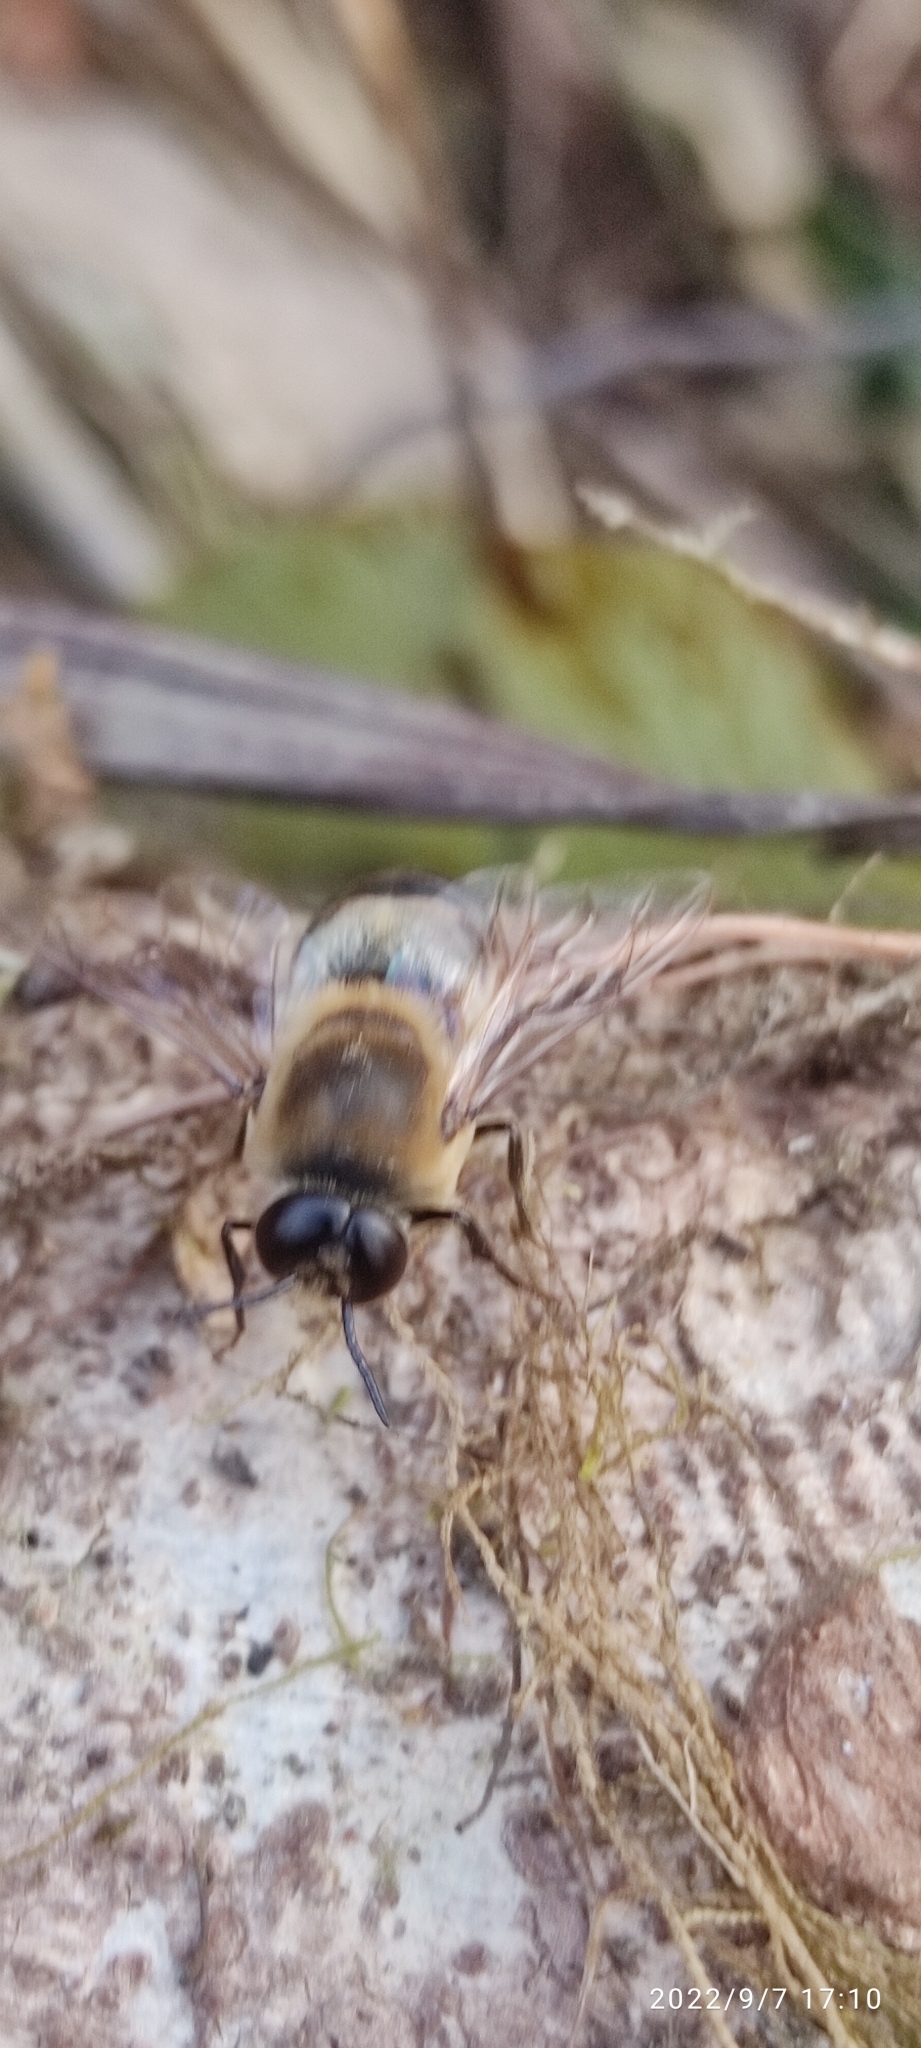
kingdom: Animalia
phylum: Arthropoda
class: Insecta
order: Hymenoptera
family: Apidae
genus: Apis
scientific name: Apis mellifera
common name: Honey bee
